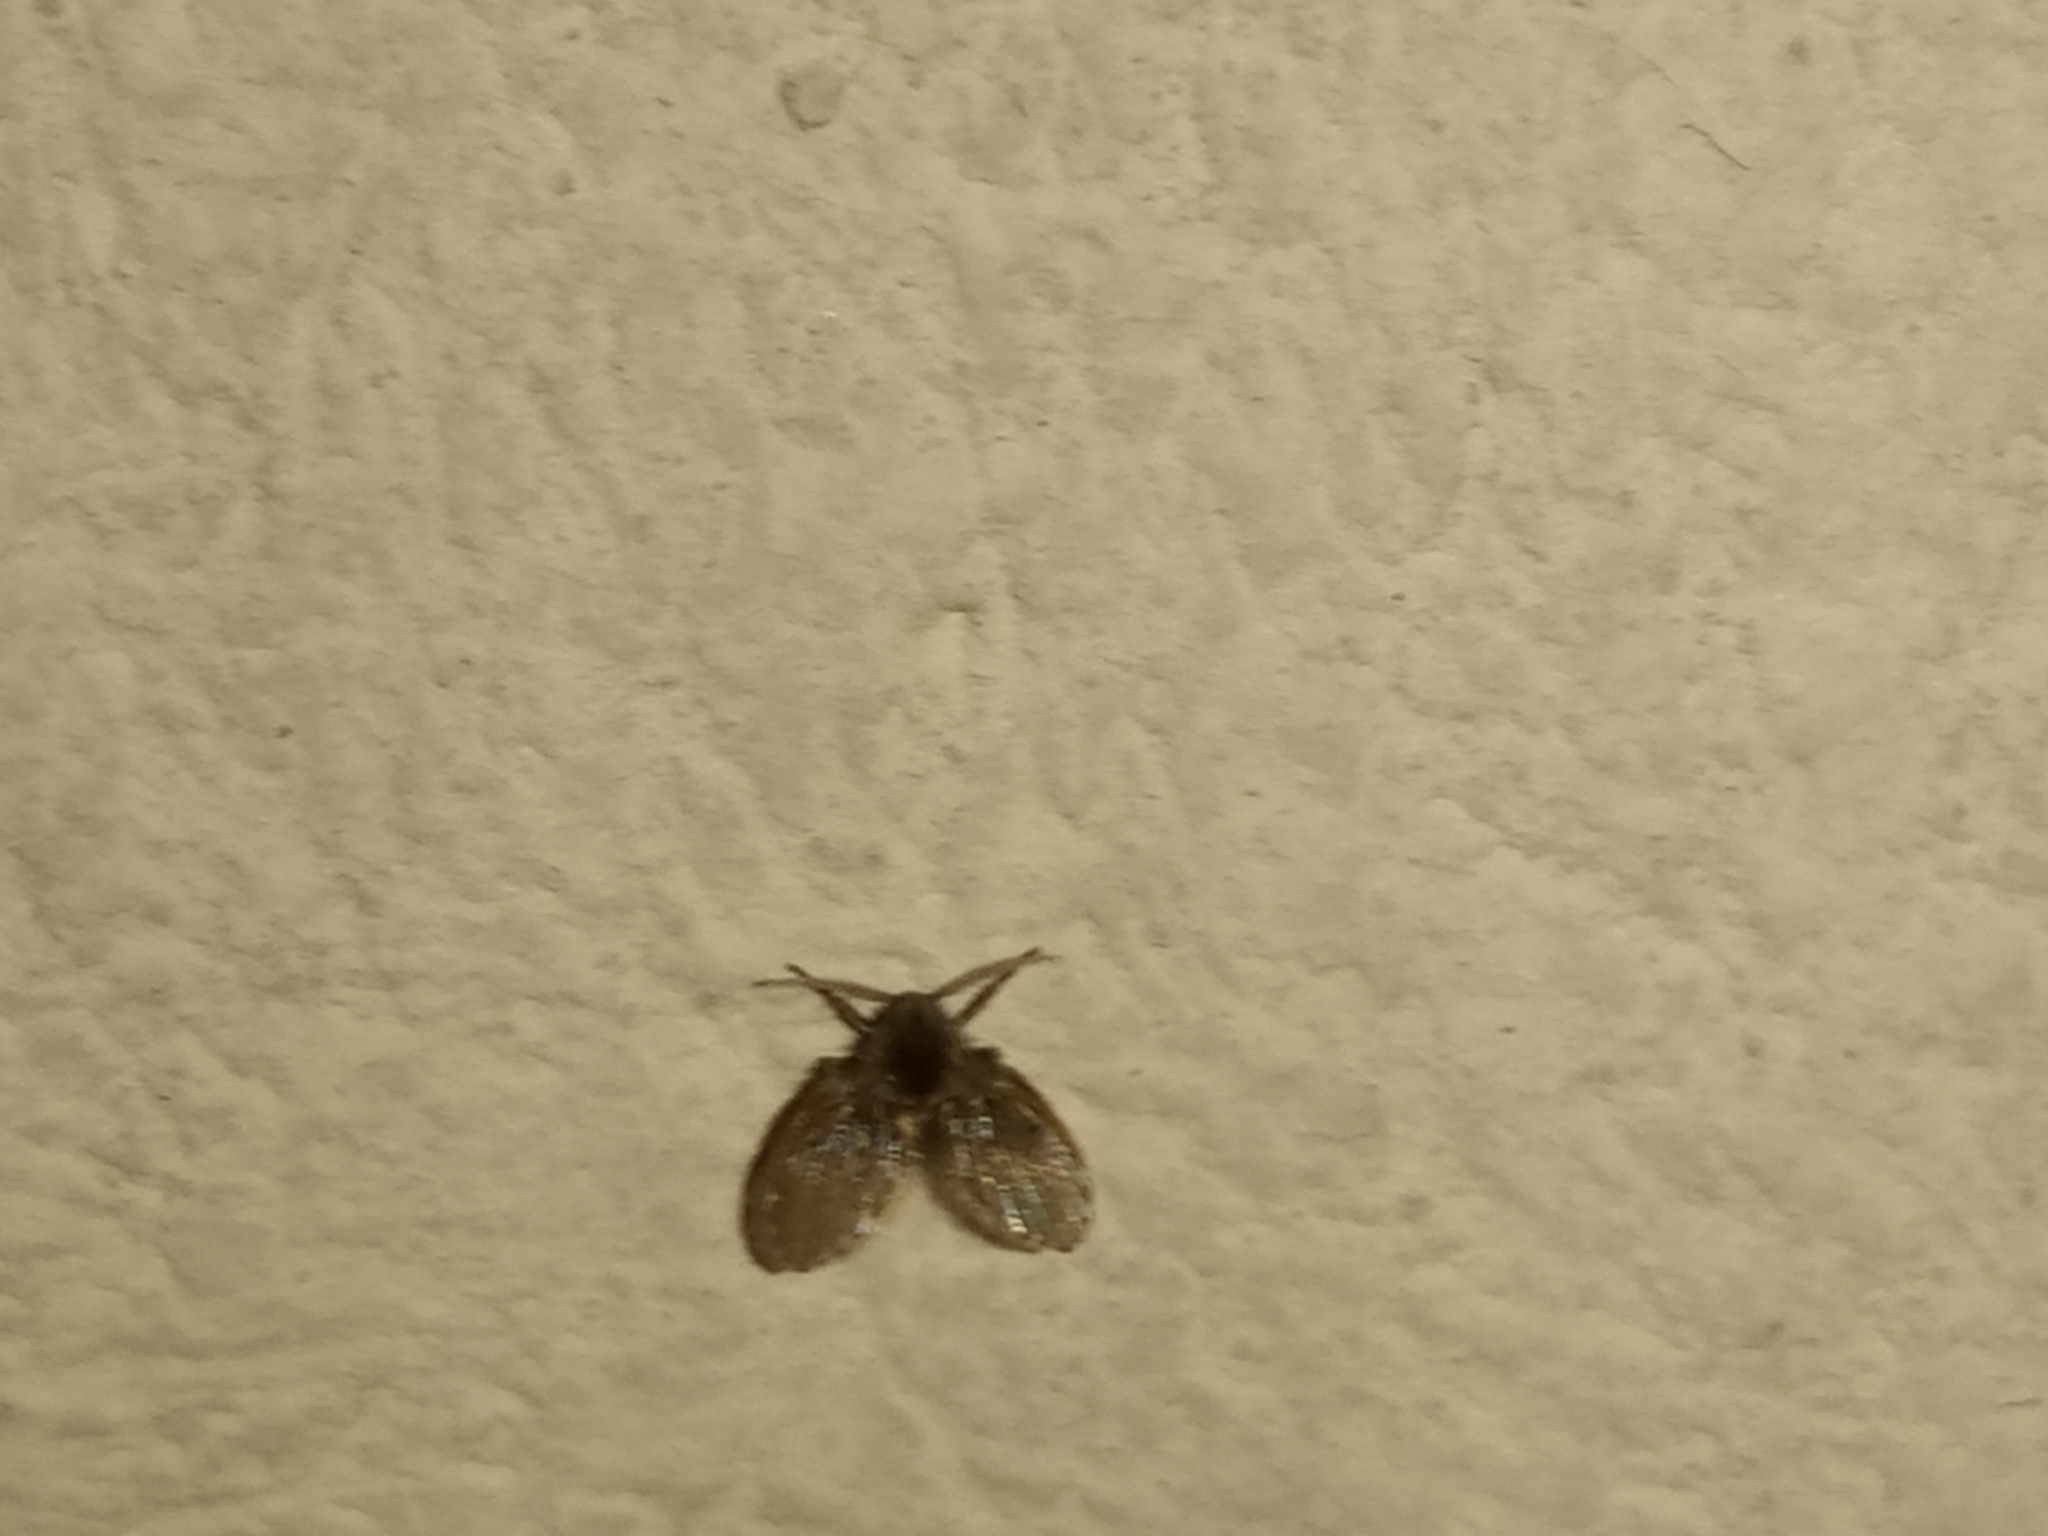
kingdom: Animalia
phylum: Arthropoda
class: Insecta
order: Diptera
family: Psychodidae
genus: Clogmia
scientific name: Clogmia albipunctatus
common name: White-spotted moth fly
